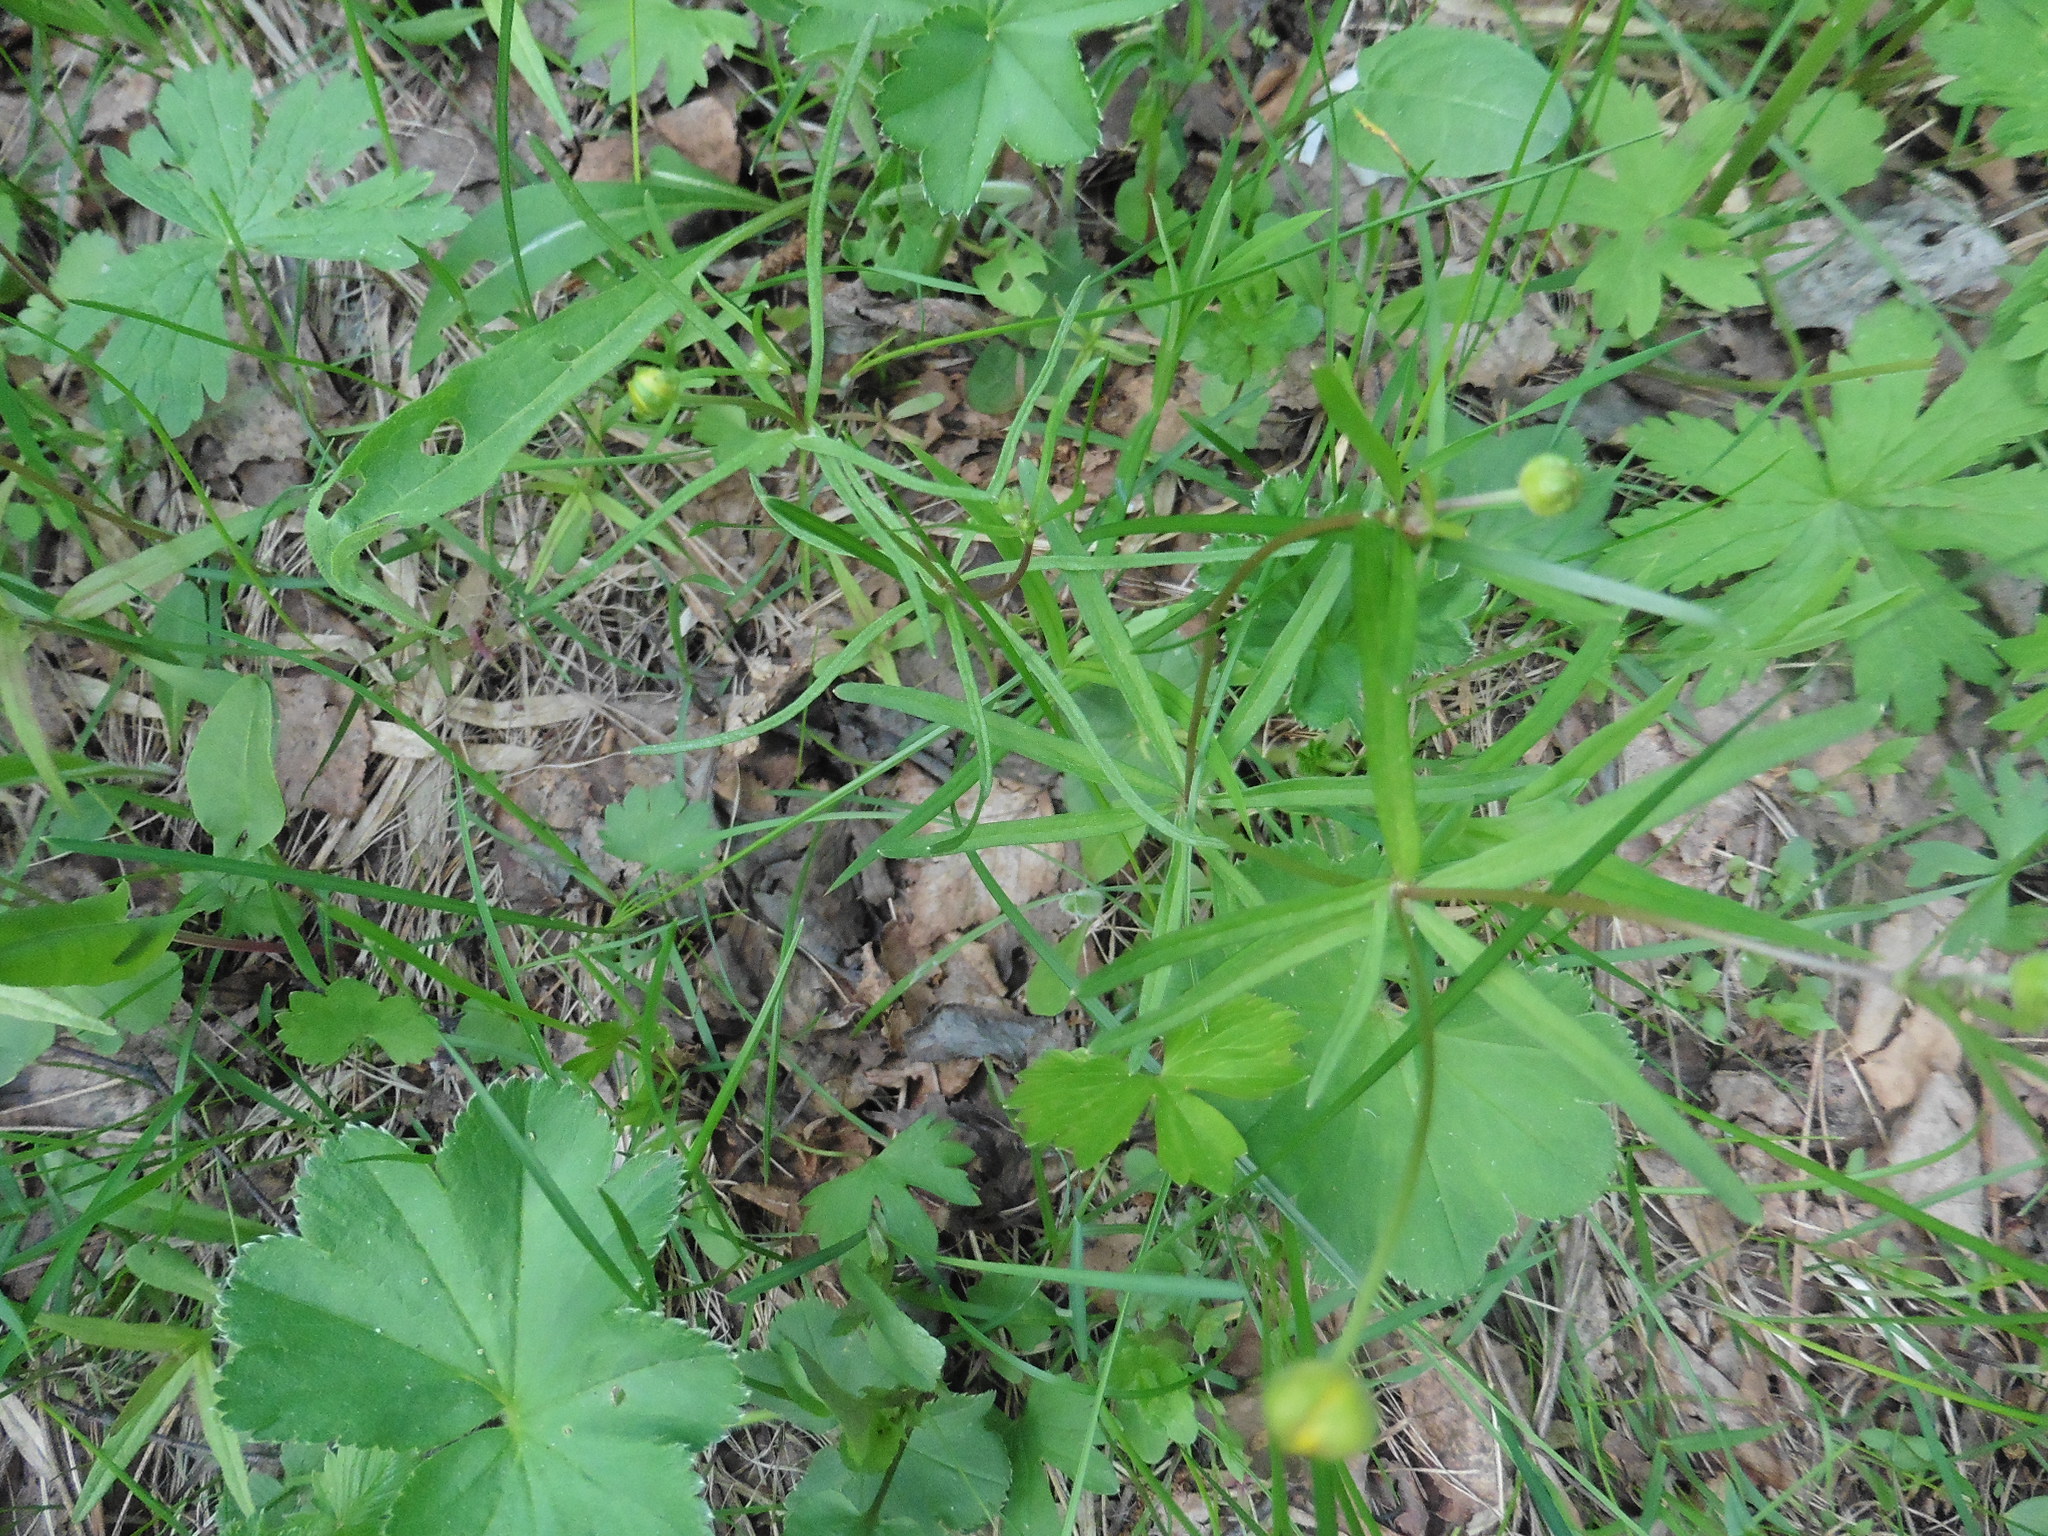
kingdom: Plantae
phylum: Tracheophyta
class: Magnoliopsida
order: Ranunculales
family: Ranunculaceae
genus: Ranunculus
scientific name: Ranunculus auricomus
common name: Goldilocks buttercup
